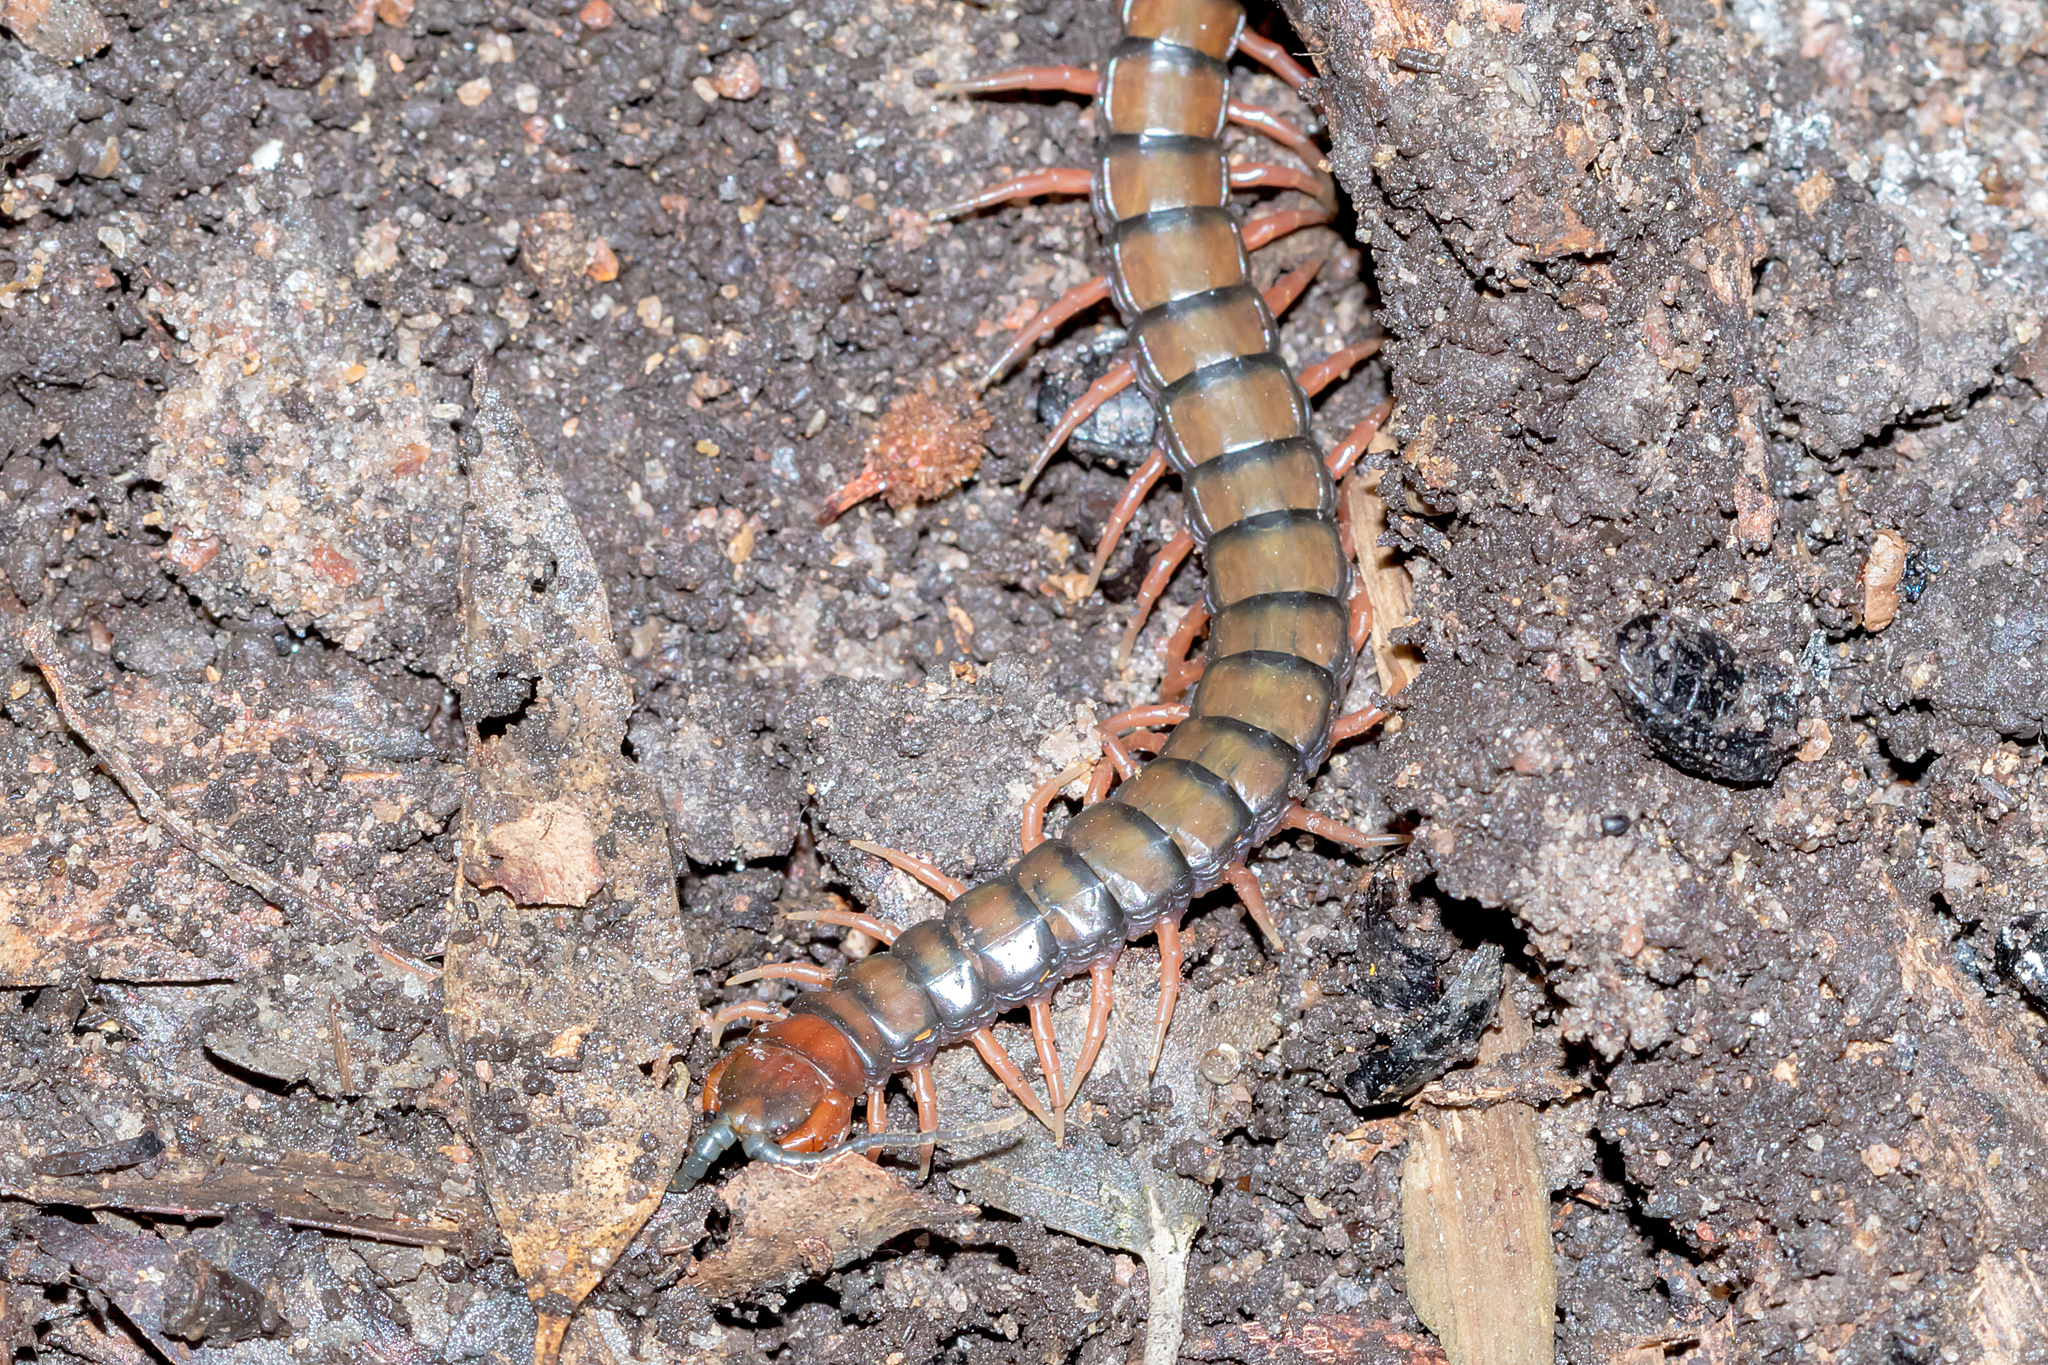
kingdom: Animalia
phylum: Arthropoda
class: Chilopoda
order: Scolopendromorpha
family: Scolopendridae
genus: Cormocephalus
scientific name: Cormocephalus aurantiipes
